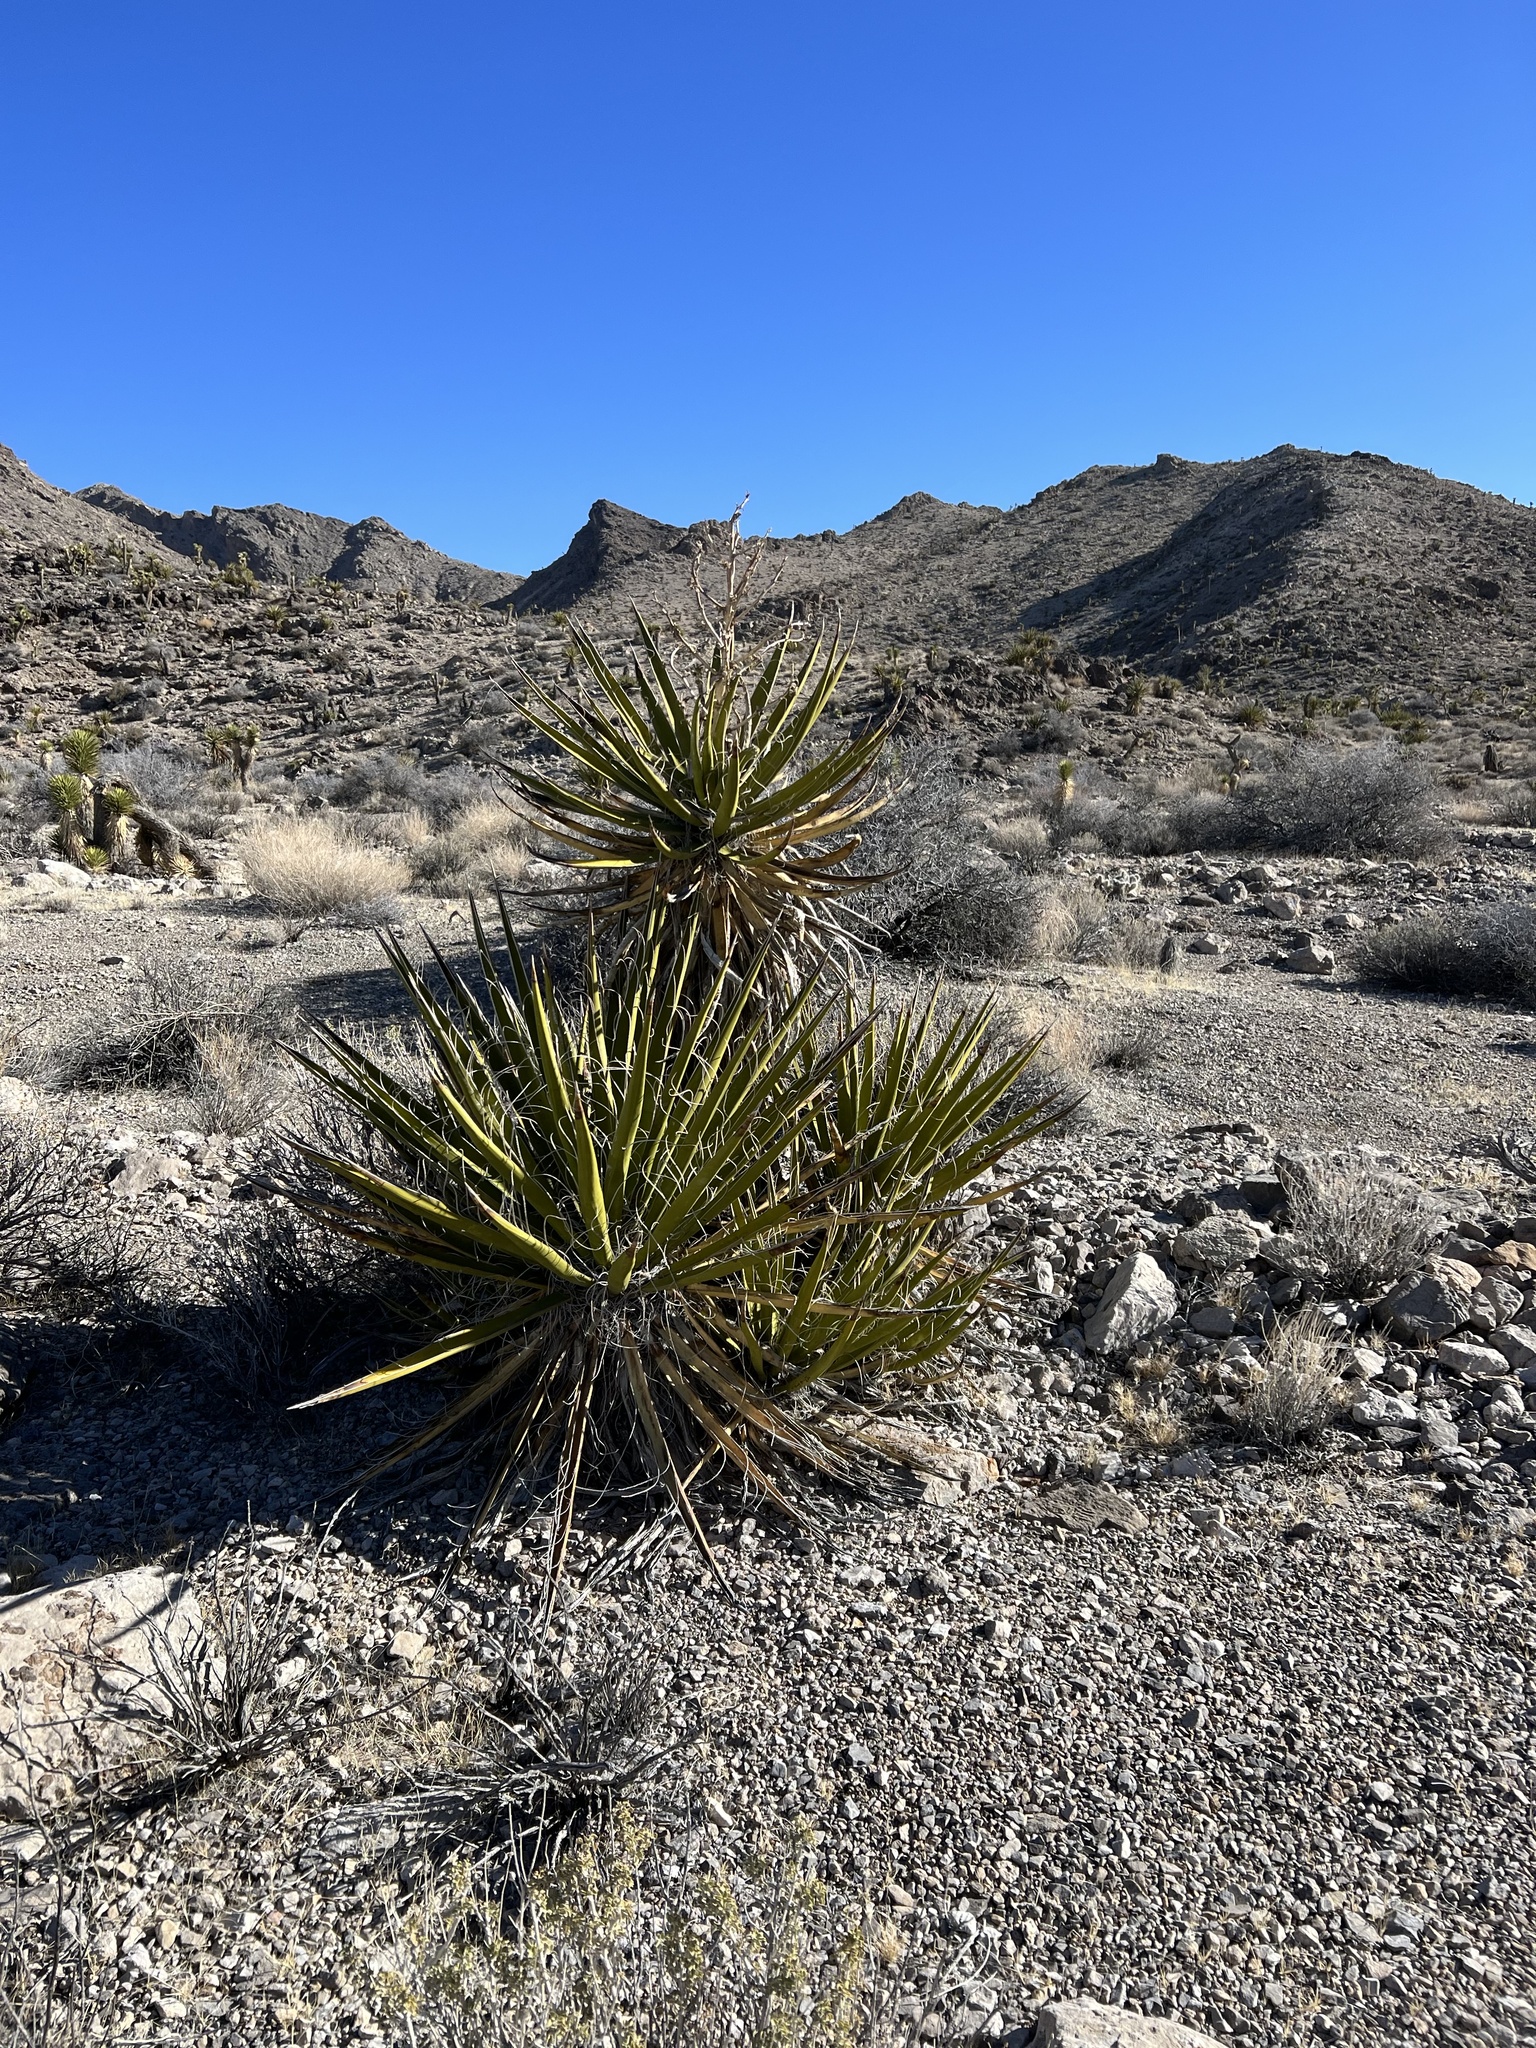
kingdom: Plantae
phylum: Tracheophyta
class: Liliopsida
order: Asparagales
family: Asparagaceae
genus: Yucca
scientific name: Yucca schidigera
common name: Mojave yucca
